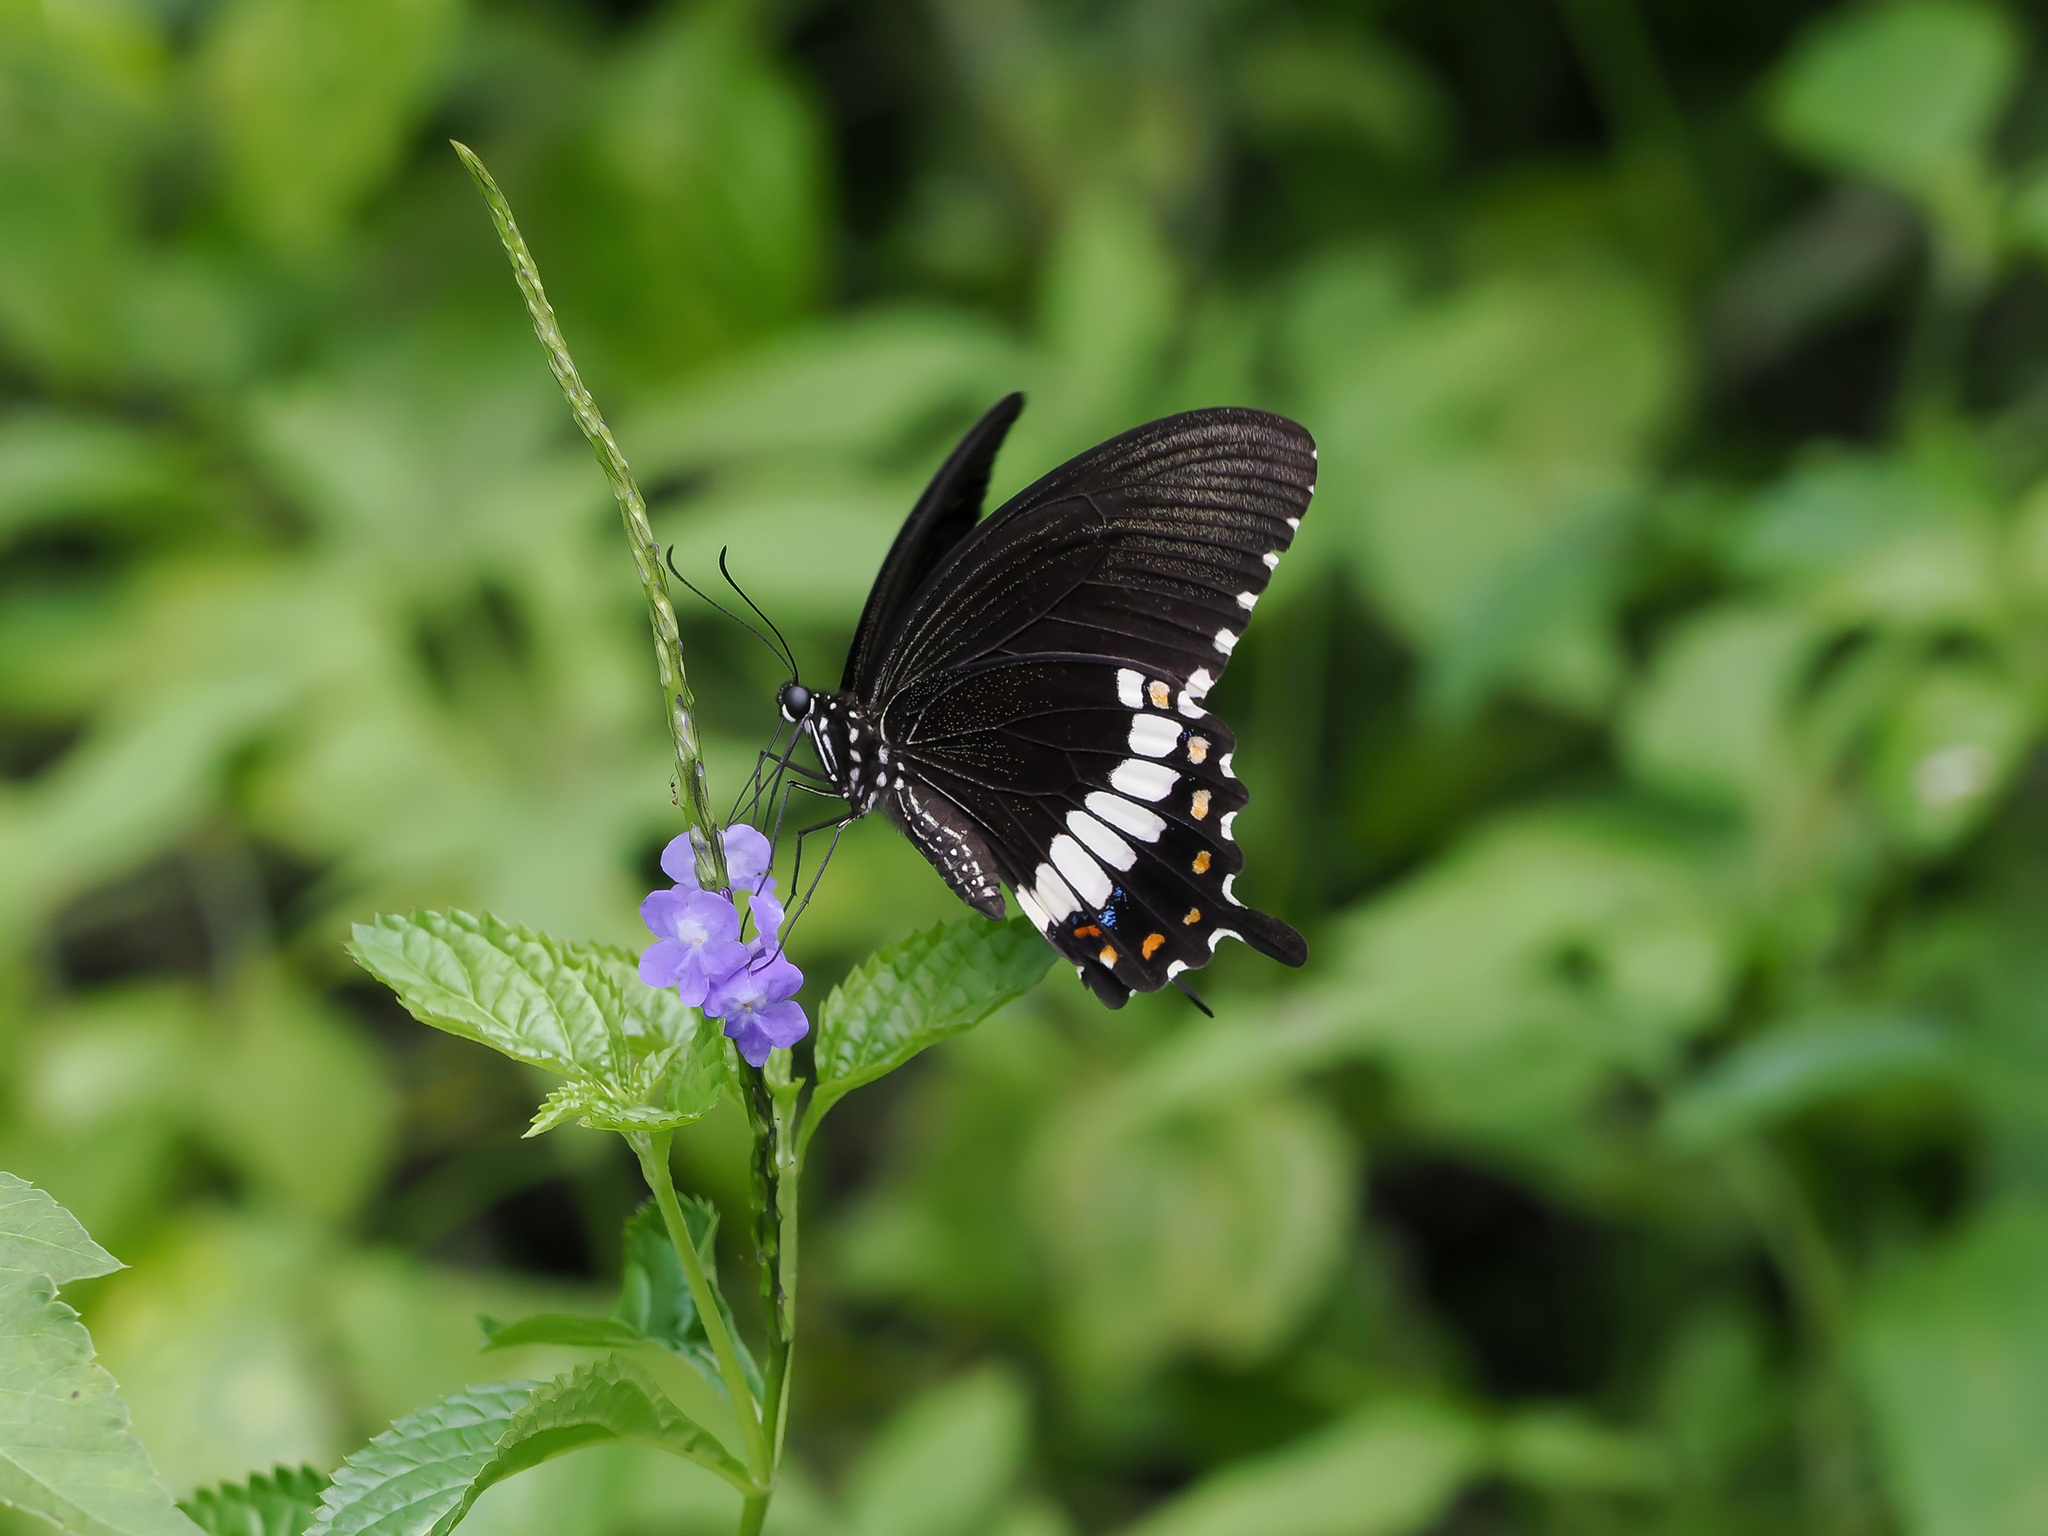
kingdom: Animalia
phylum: Arthropoda
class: Insecta
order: Lepidoptera
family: Papilionidae
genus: Papilio
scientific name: Papilio polytes
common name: Common mormon
